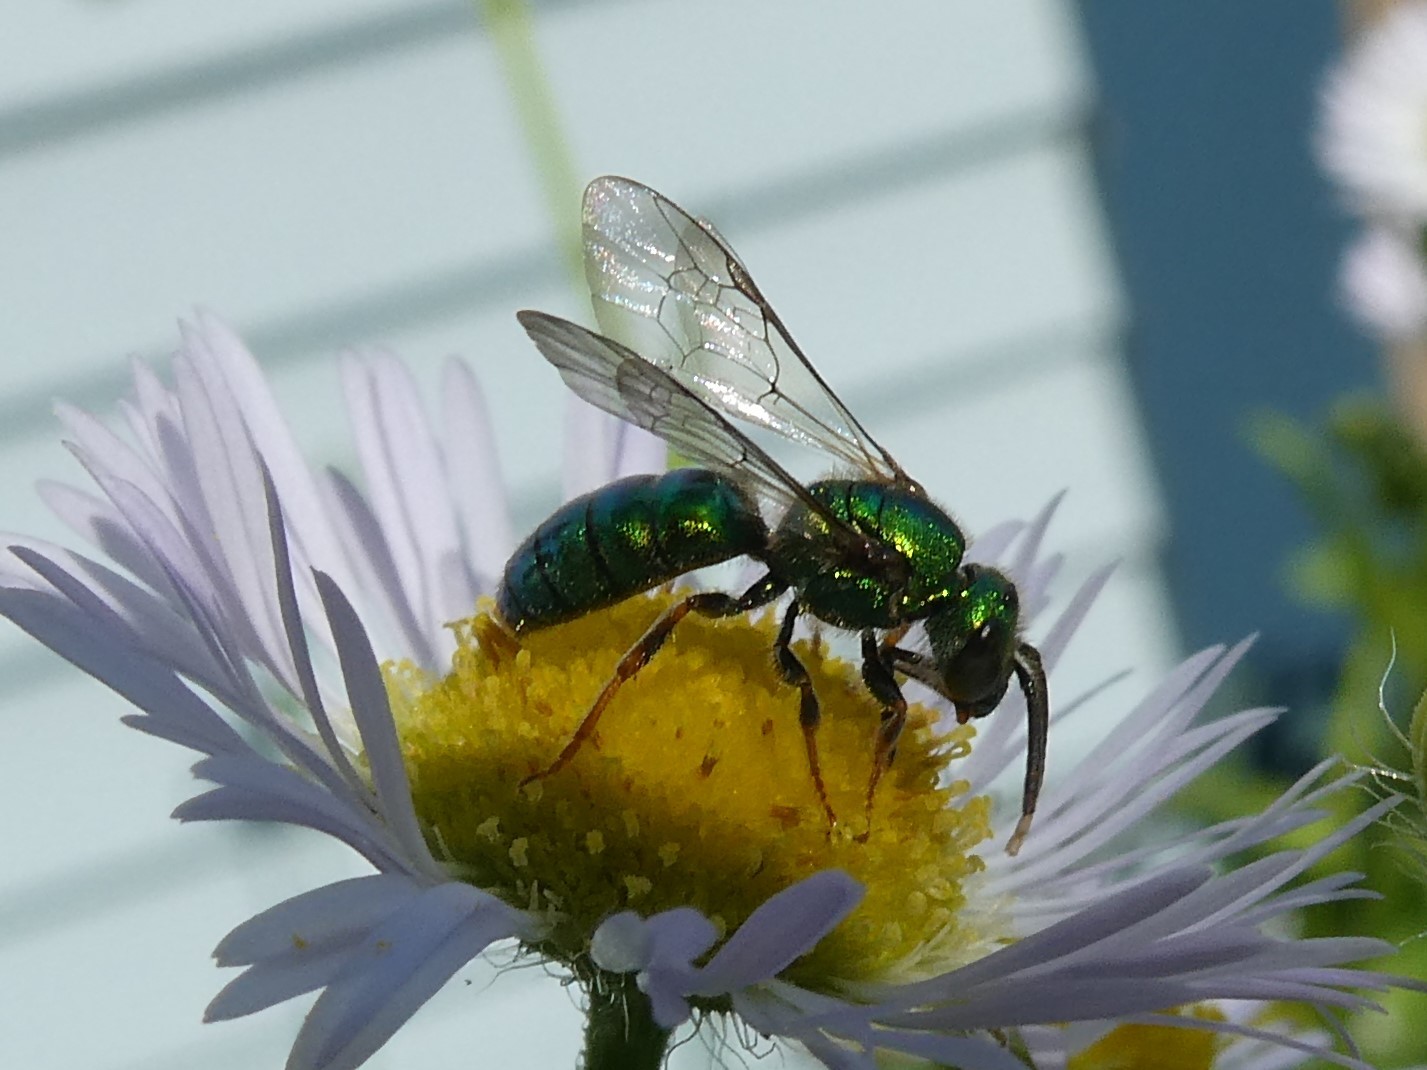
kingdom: Animalia
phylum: Arthropoda
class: Insecta
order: Hymenoptera
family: Halictidae
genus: Augochlora
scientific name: Augochlora pura
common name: Pure green sweat bee
